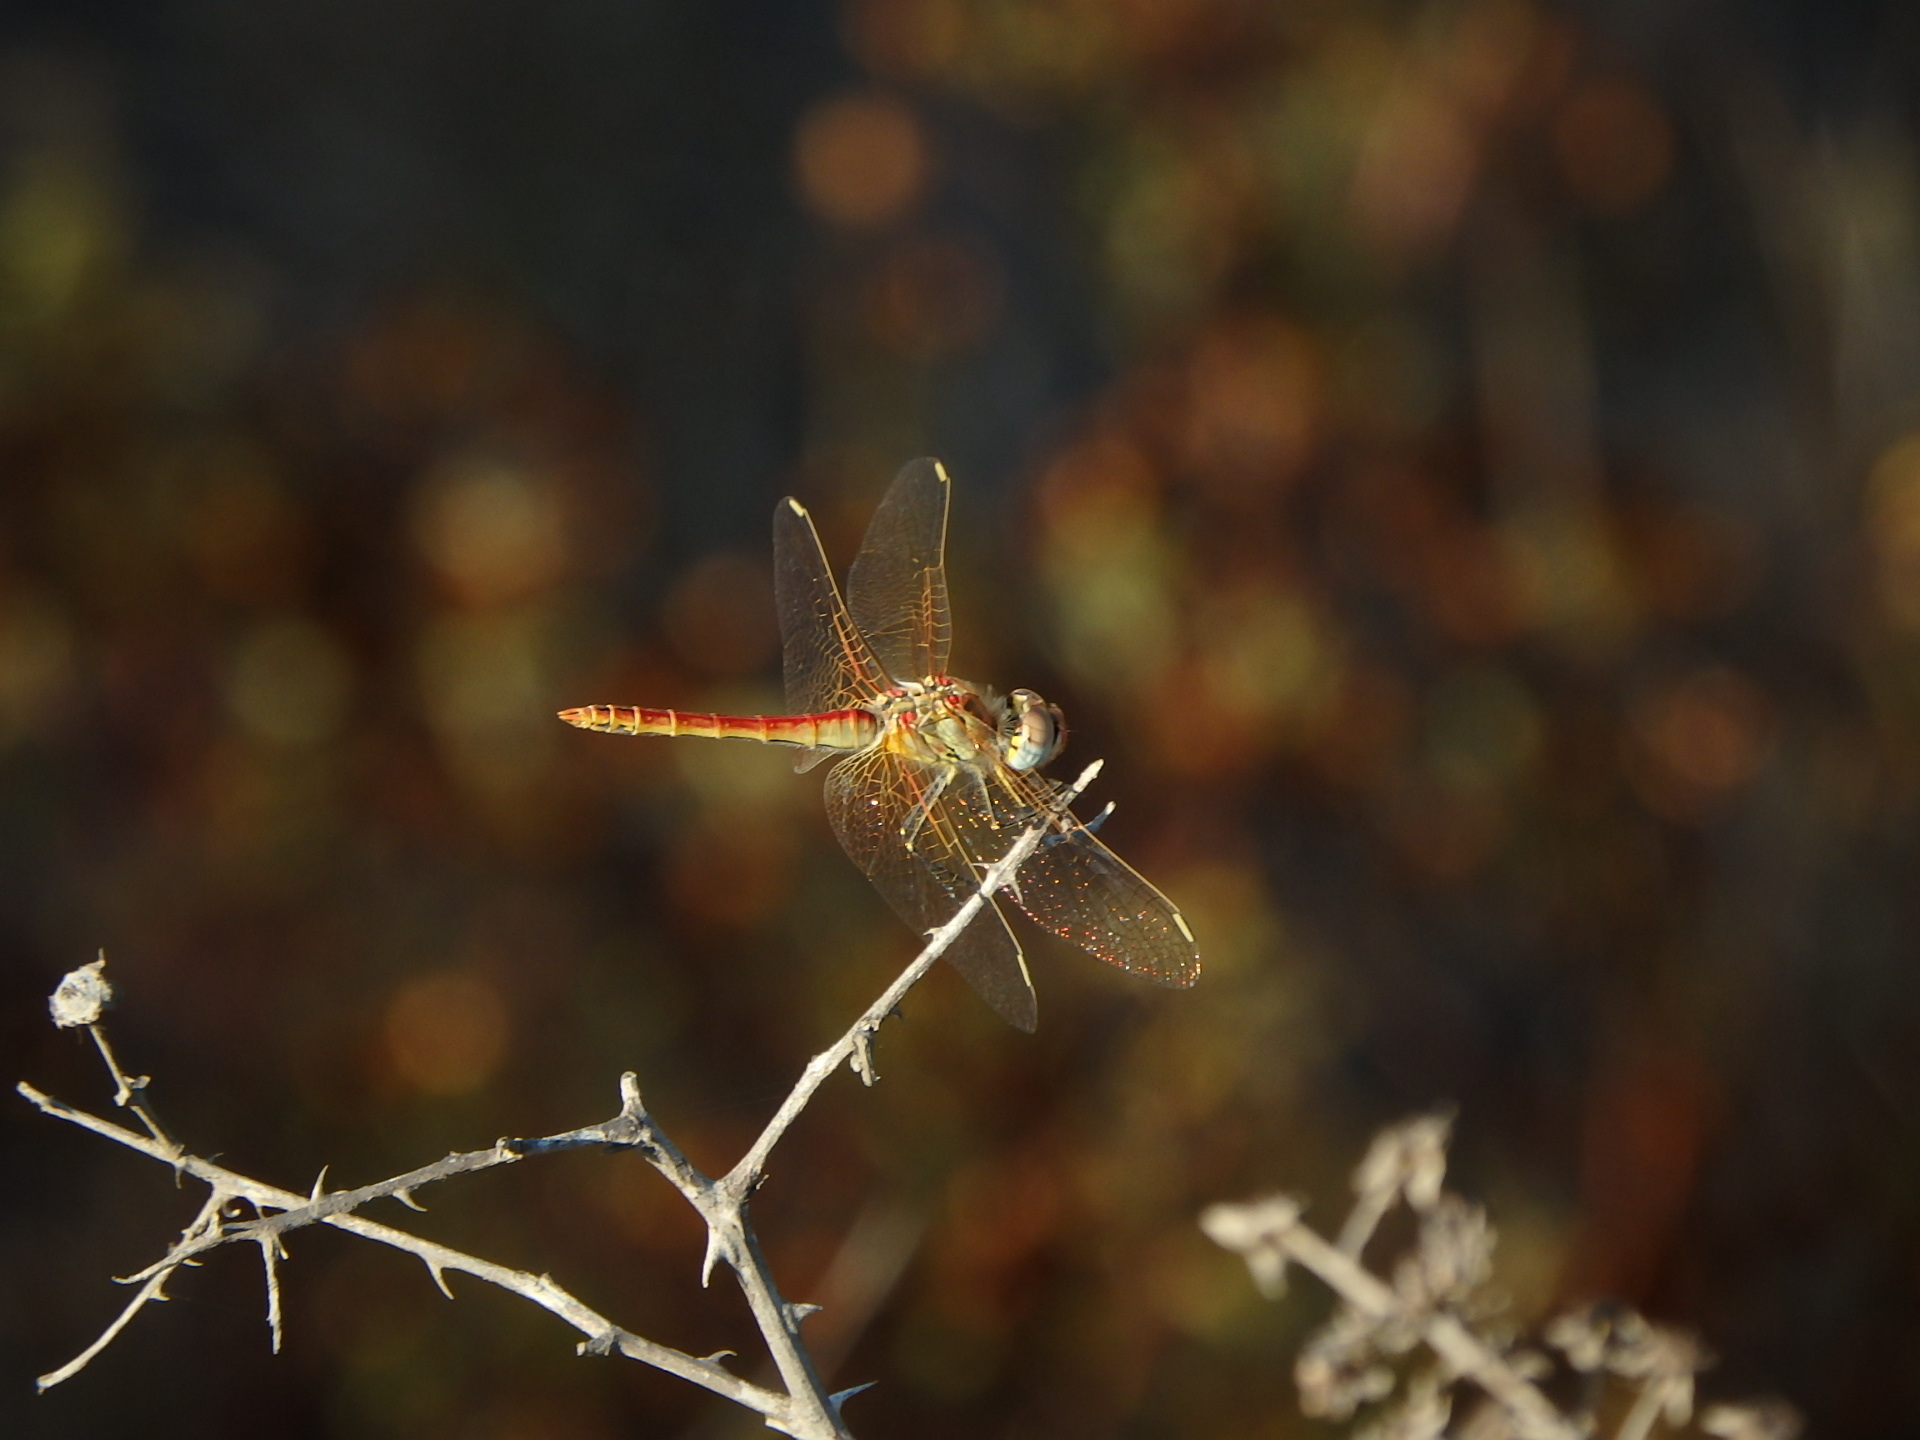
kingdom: Animalia
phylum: Arthropoda
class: Insecta
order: Odonata
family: Libellulidae
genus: Sympetrum
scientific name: Sympetrum fonscolombii
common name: Red-veined darter
